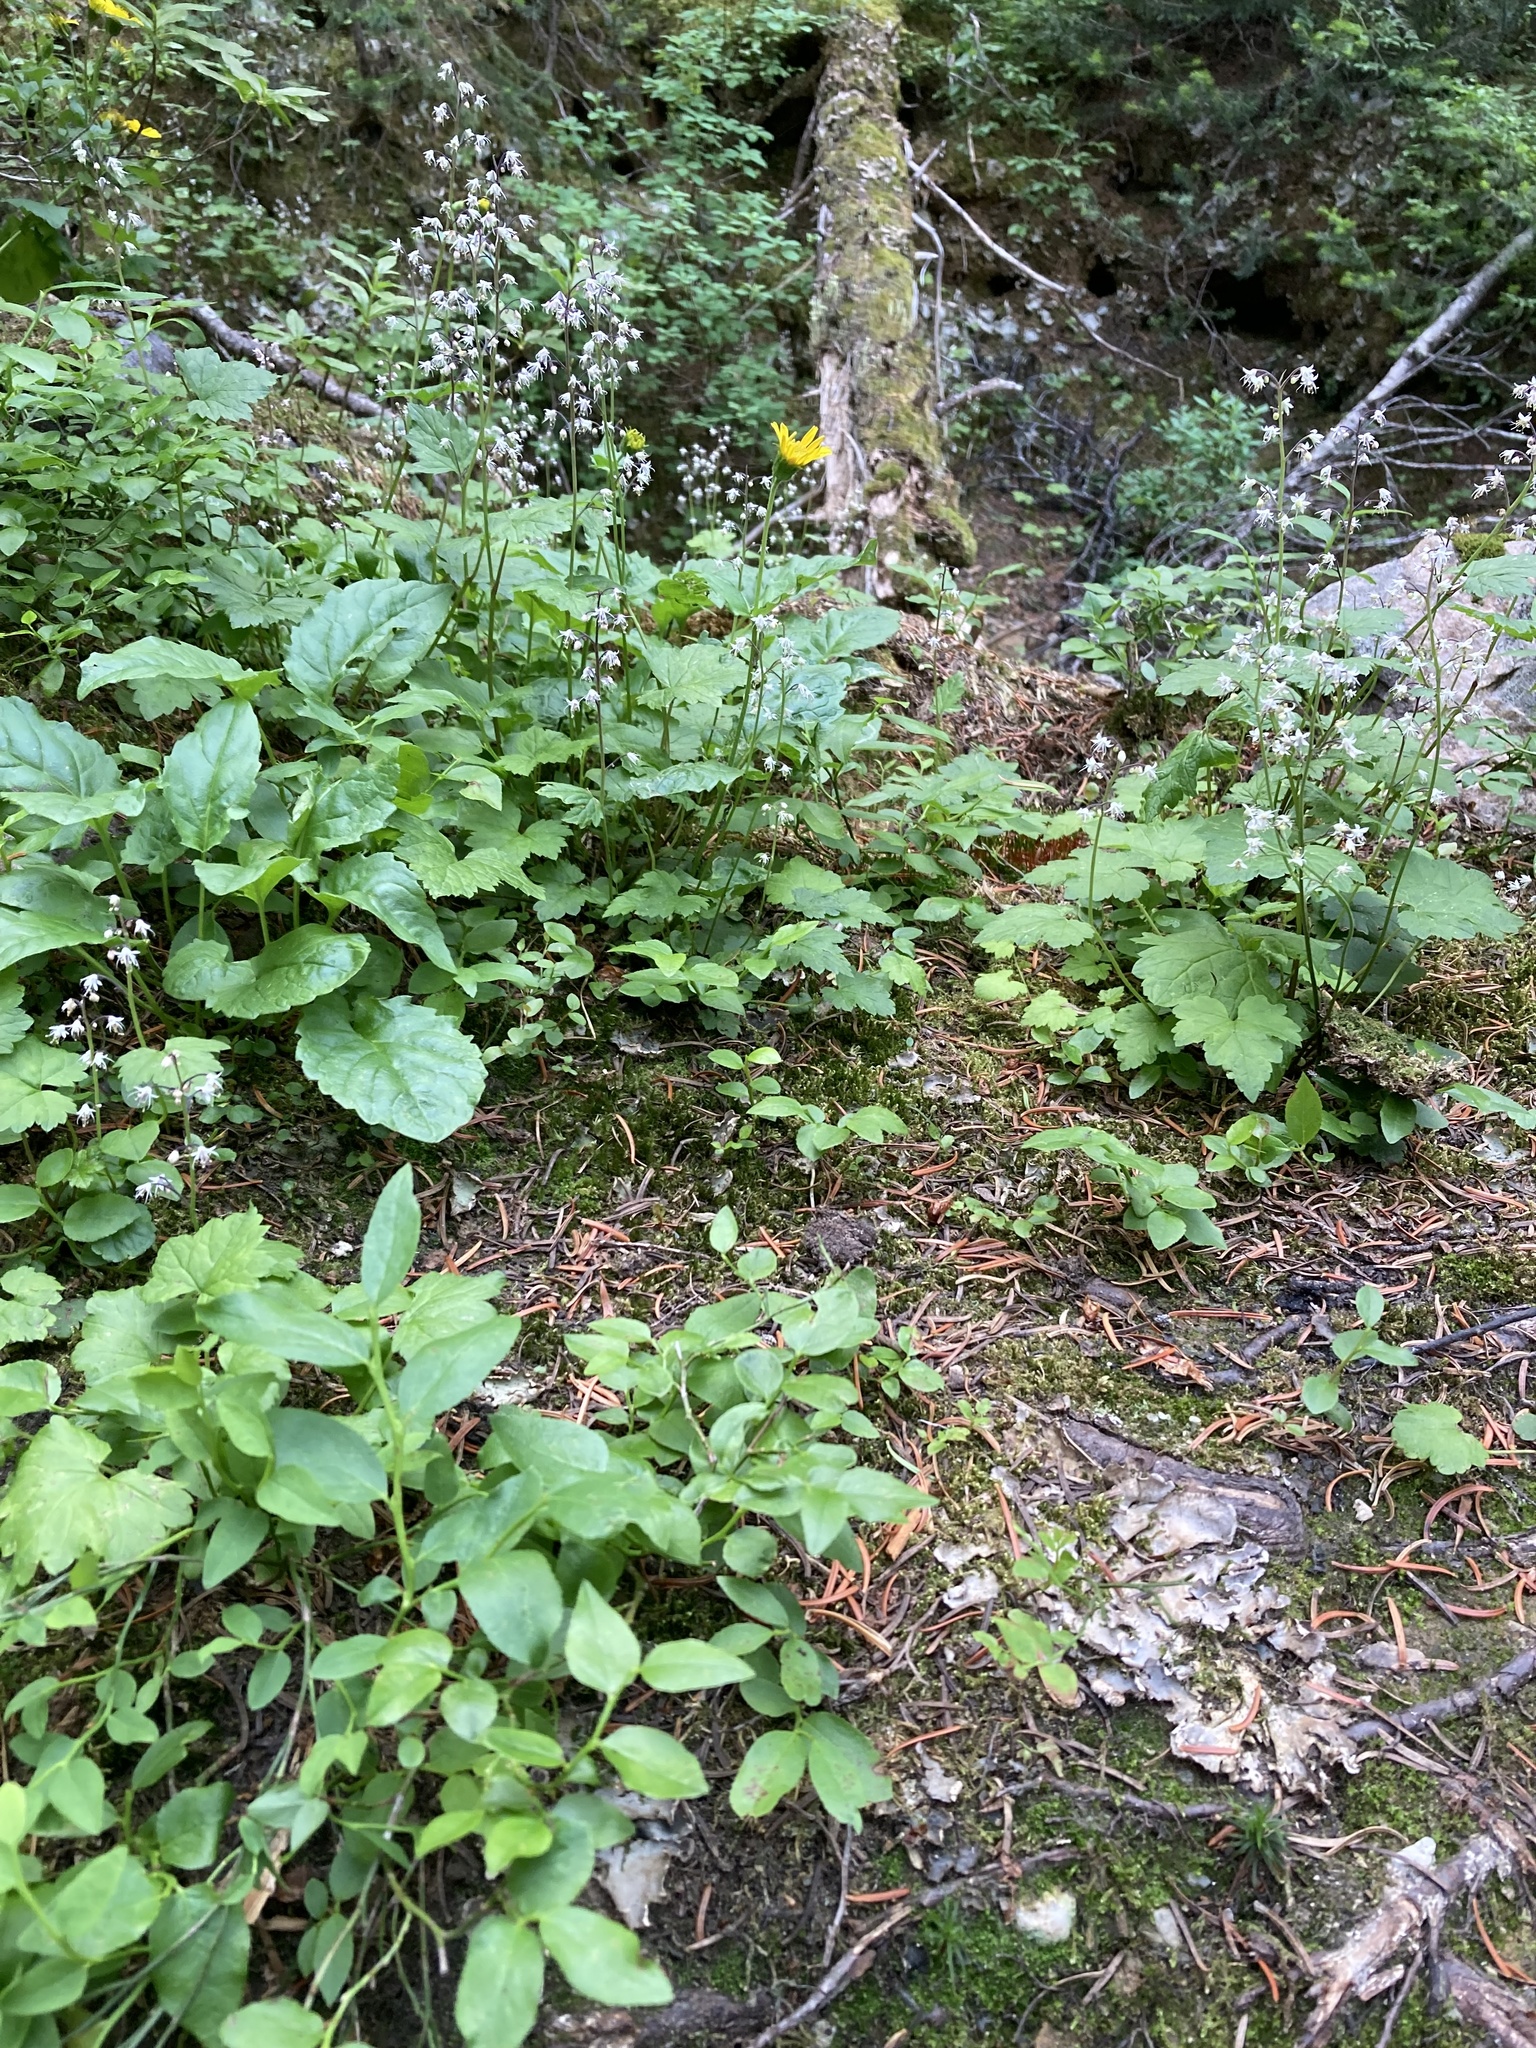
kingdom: Plantae
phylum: Tracheophyta
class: Magnoliopsida
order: Saxifragales
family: Saxifragaceae
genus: Tiarella
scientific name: Tiarella trifoliata
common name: Sugar-scoop
